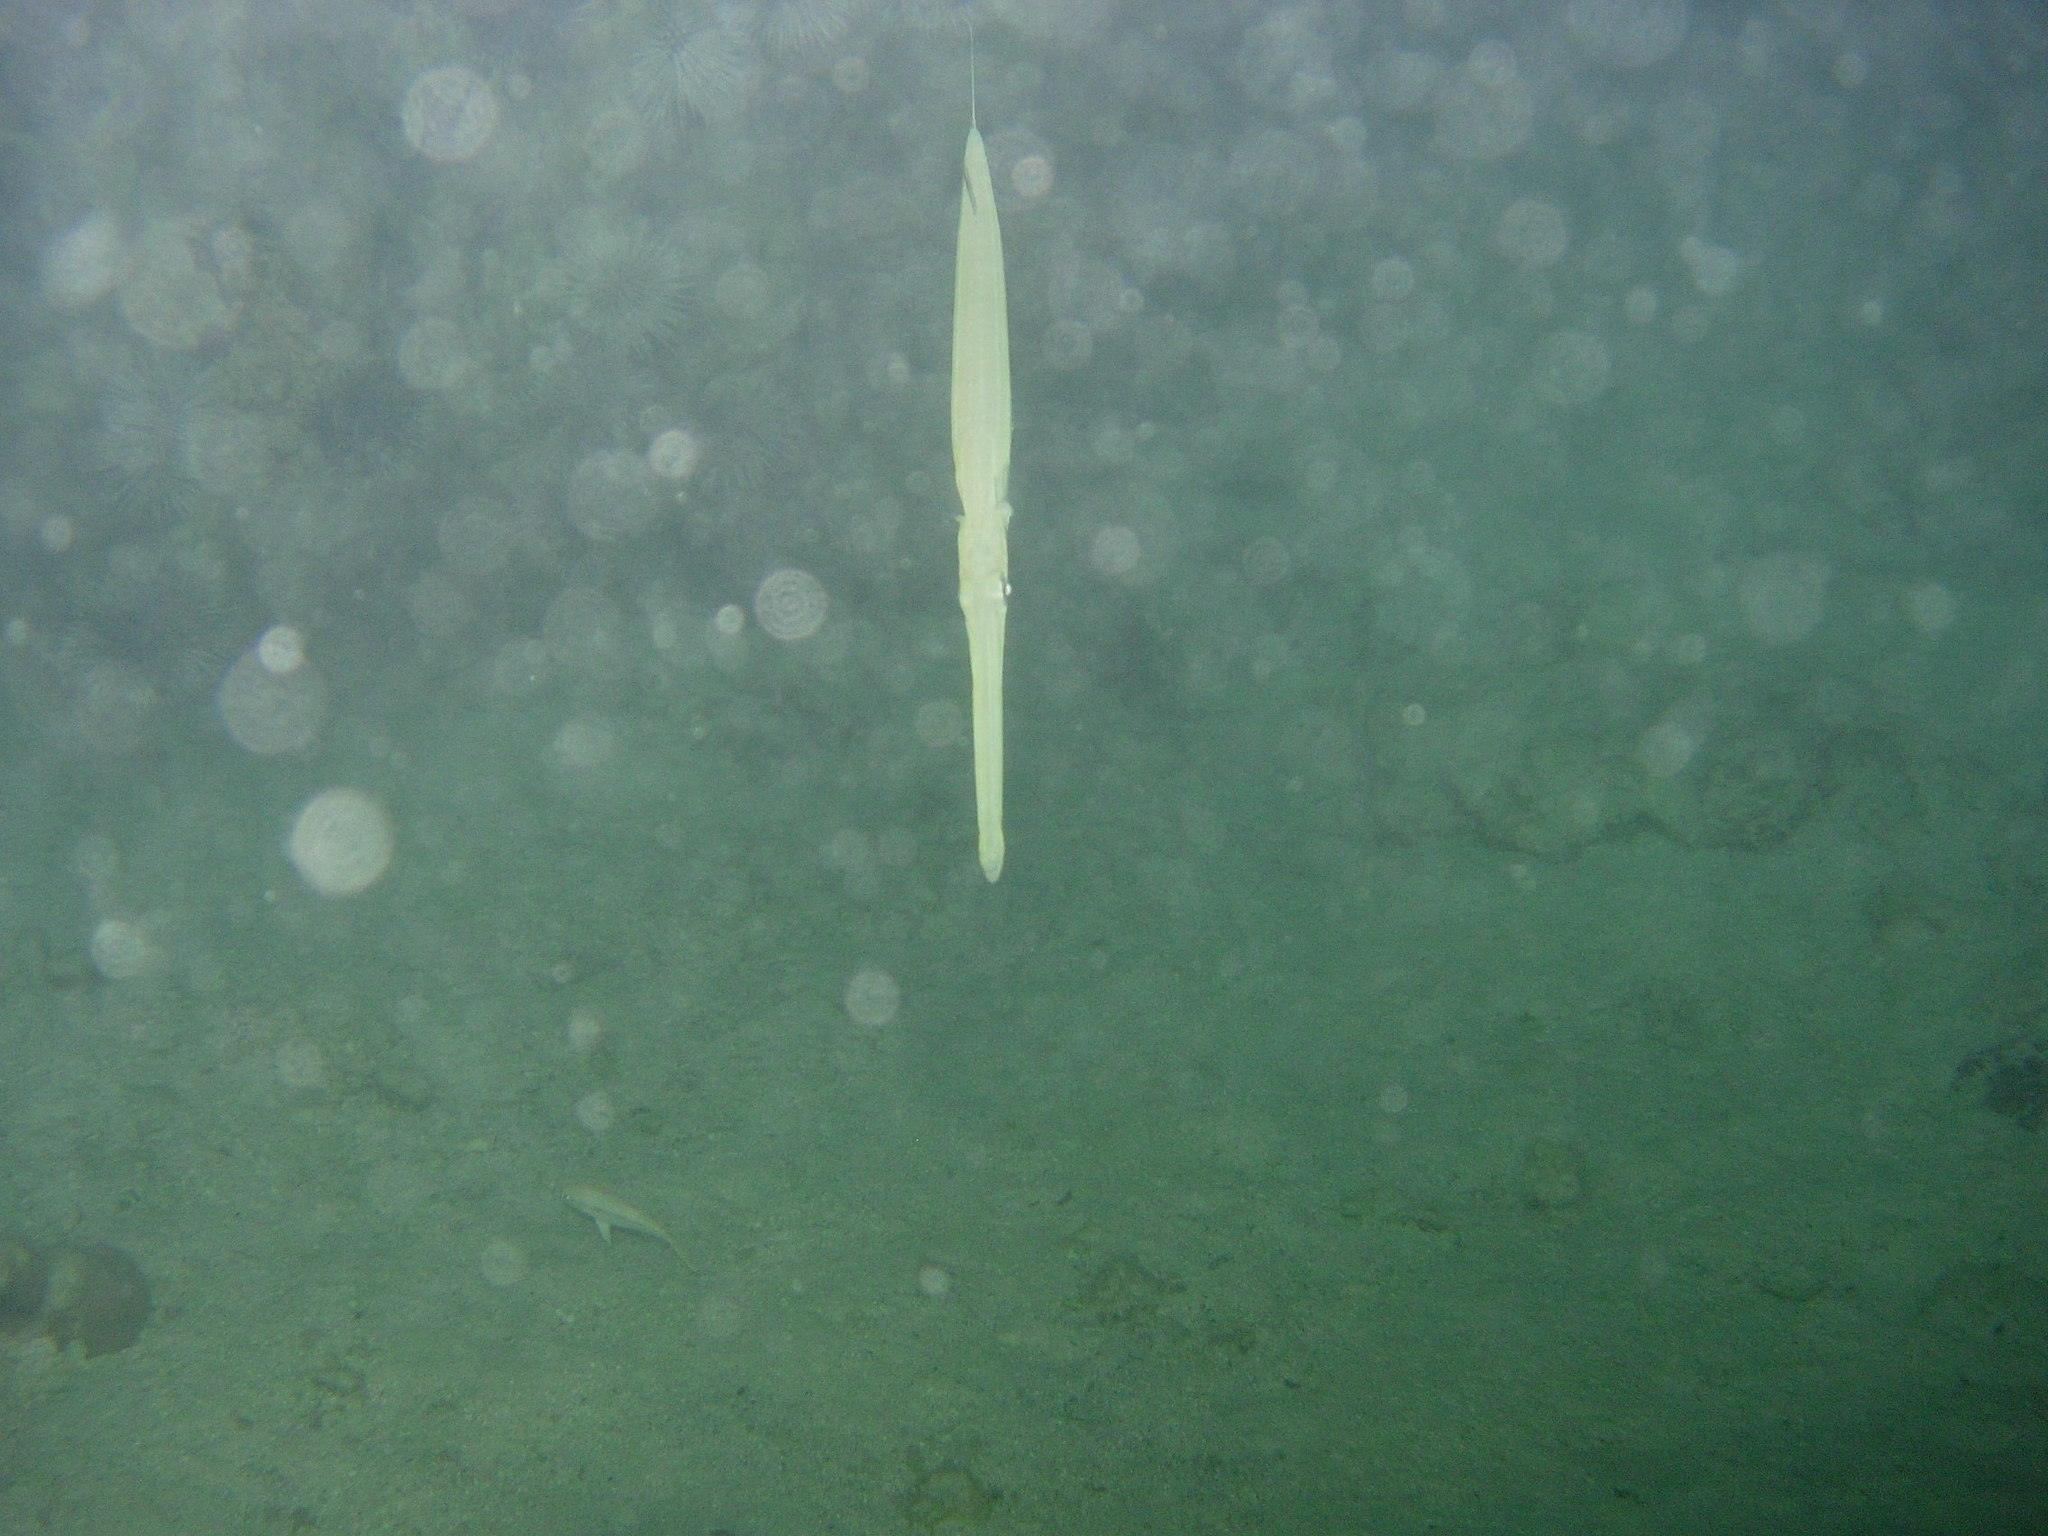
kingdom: Animalia
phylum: Chordata
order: Syngnathiformes
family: Fistulariidae
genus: Fistularia
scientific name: Fistularia commersonii
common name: Bluespotted cornetfish
